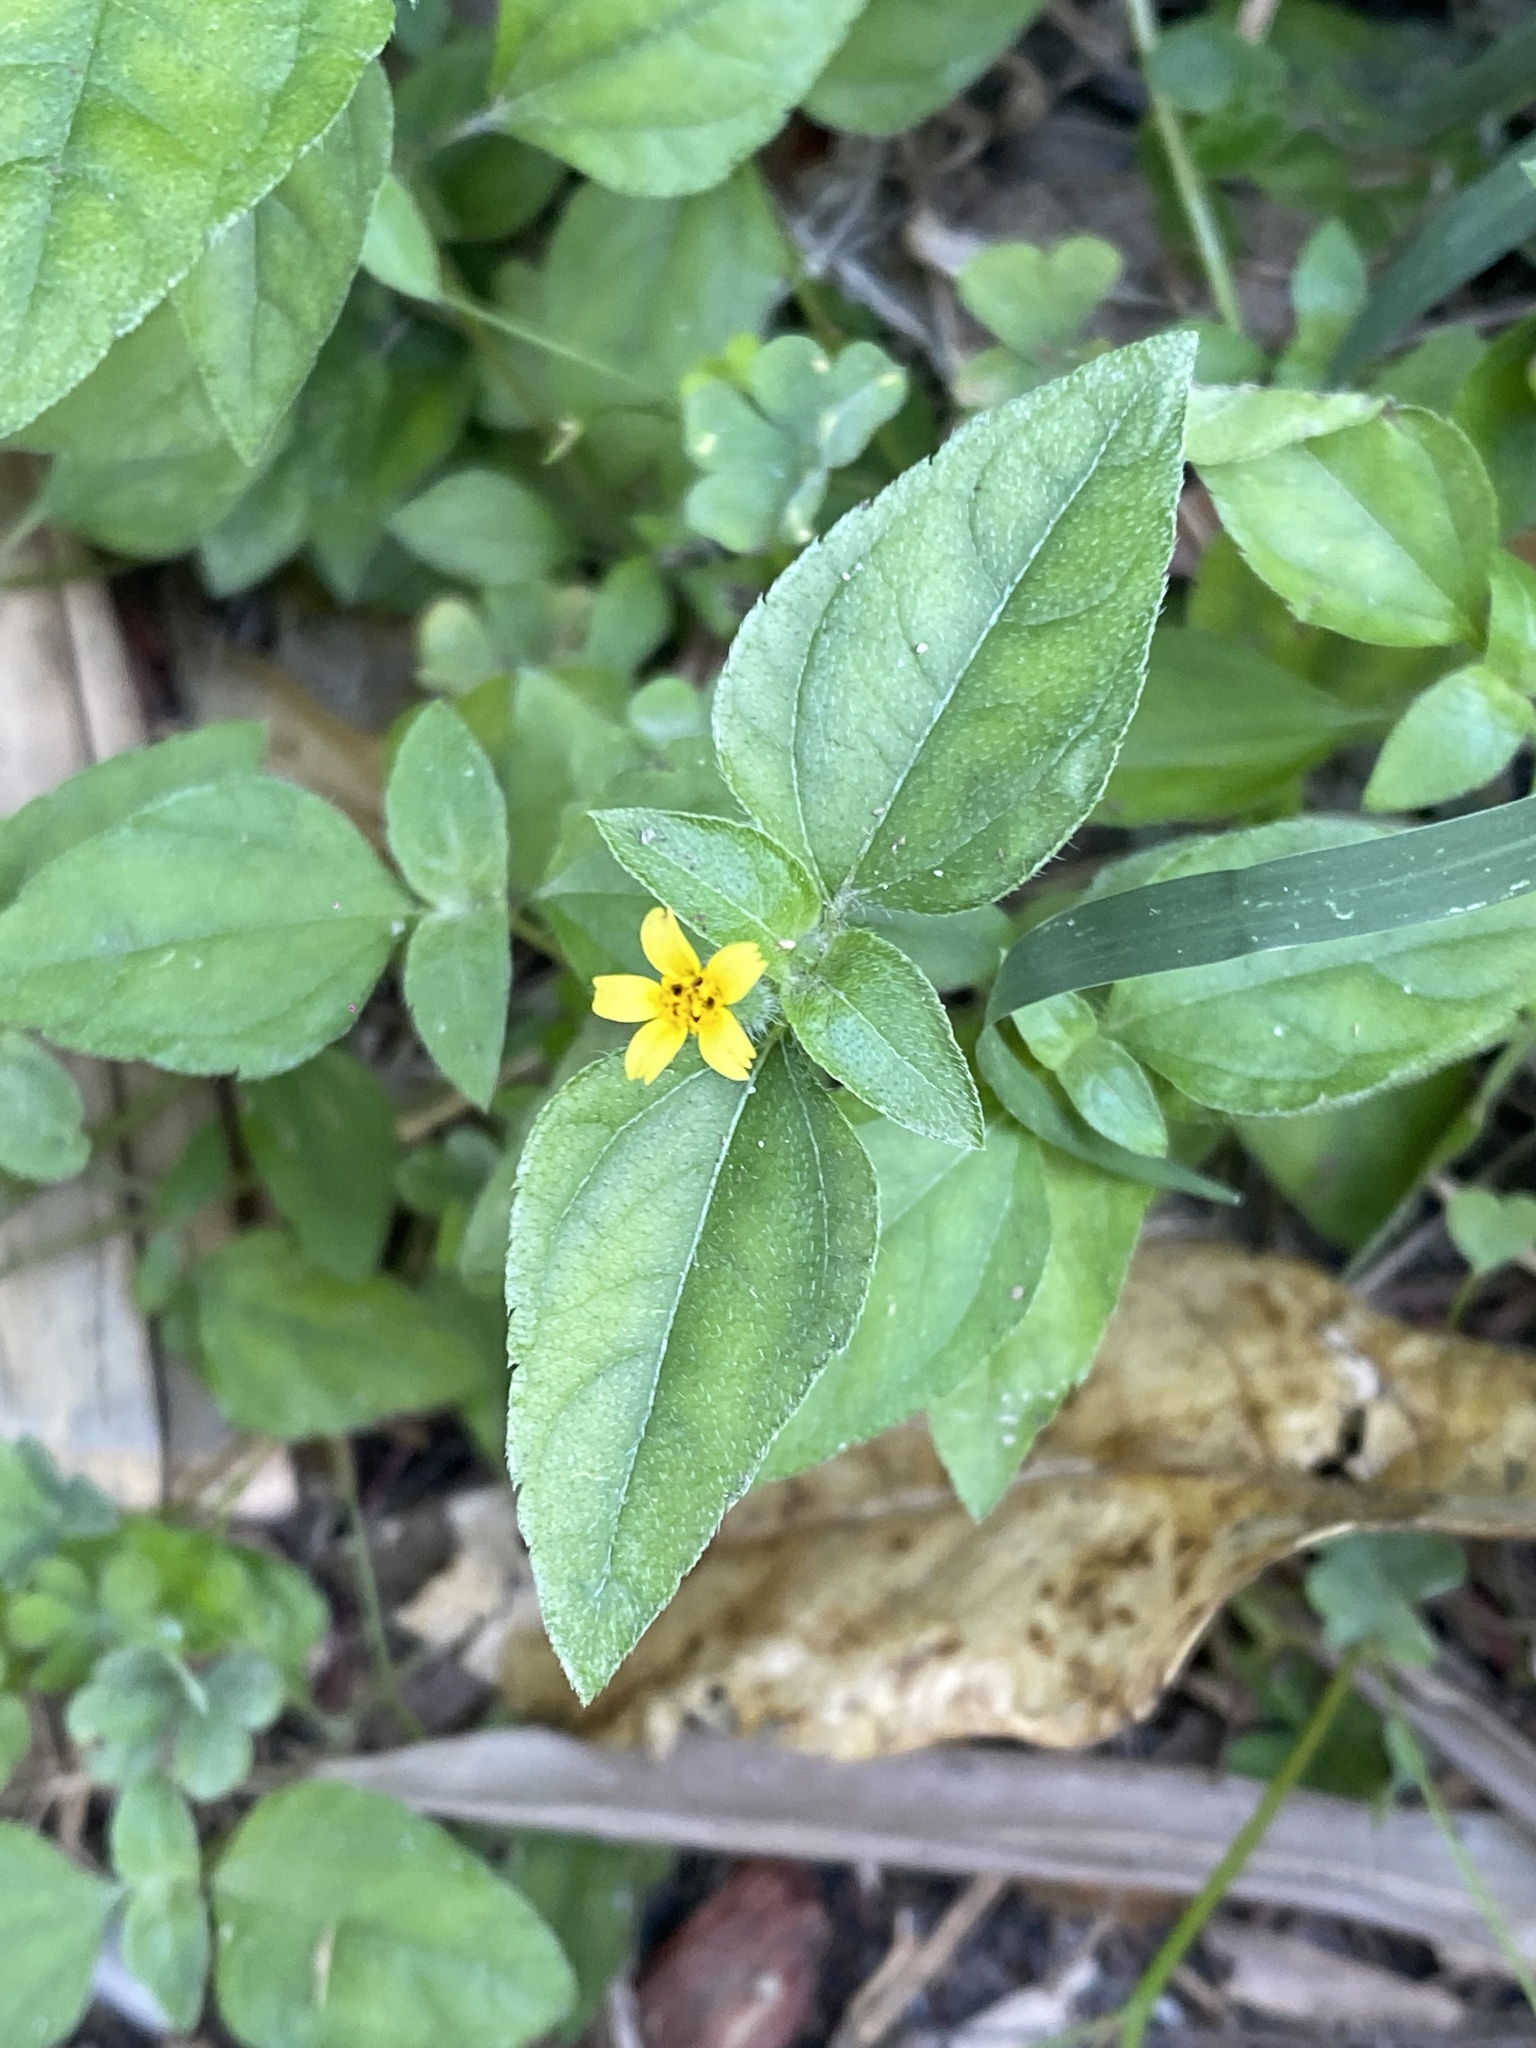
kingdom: Plantae
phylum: Tracheophyta
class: Magnoliopsida
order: Asterales
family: Asteraceae
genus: Calyptocarpus
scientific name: Calyptocarpus vialis
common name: Straggler daisy
